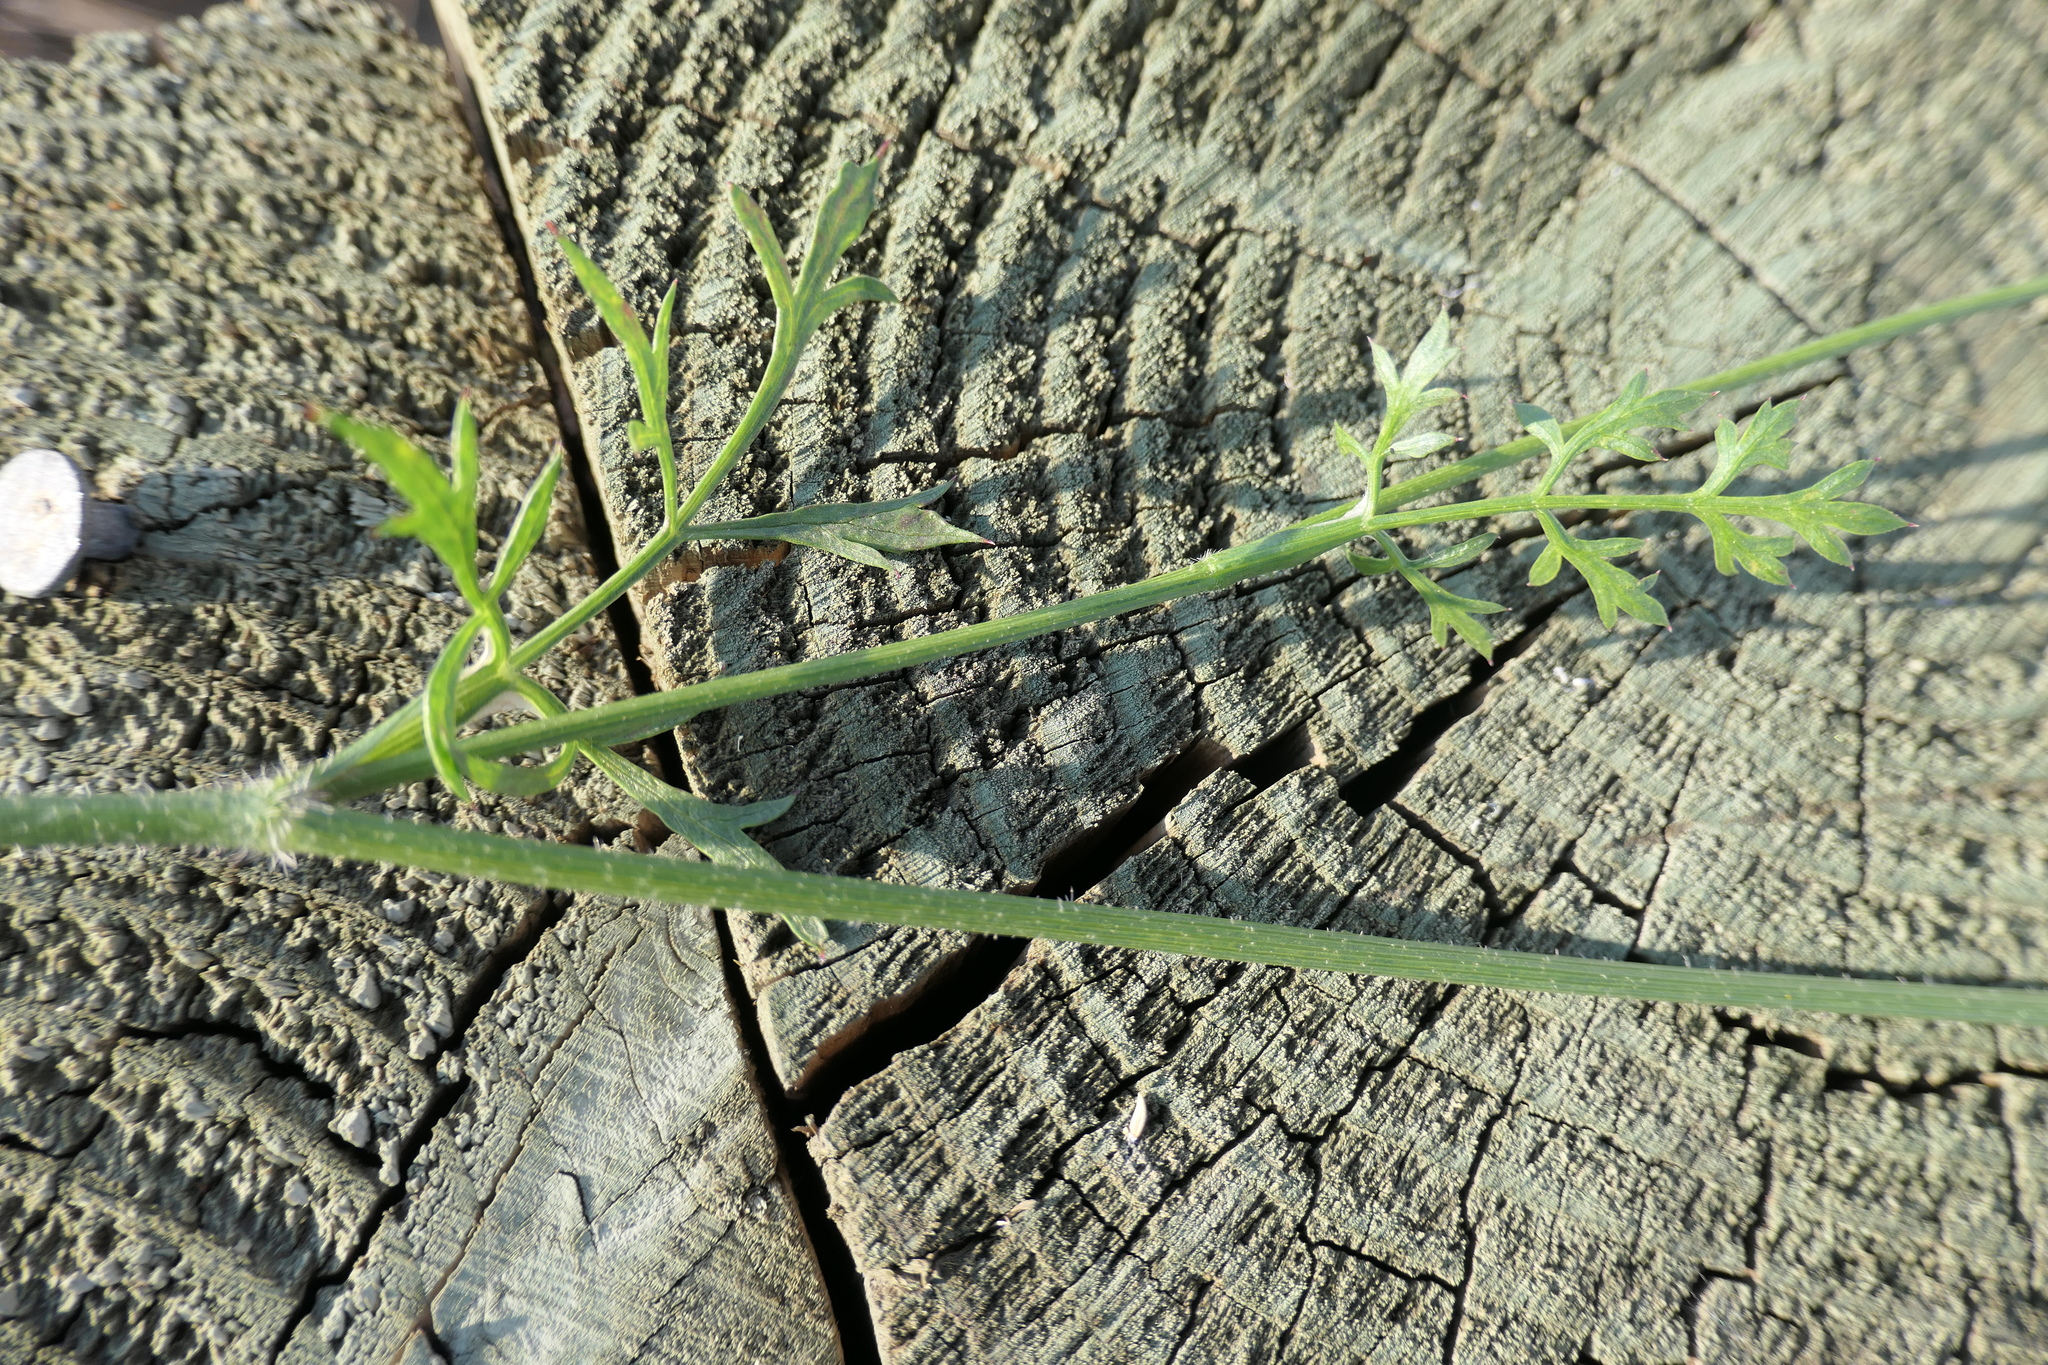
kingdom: Plantae
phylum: Tracheophyta
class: Magnoliopsida
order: Apiales
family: Apiaceae
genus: Daucus
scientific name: Daucus carota
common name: Wild carrot
